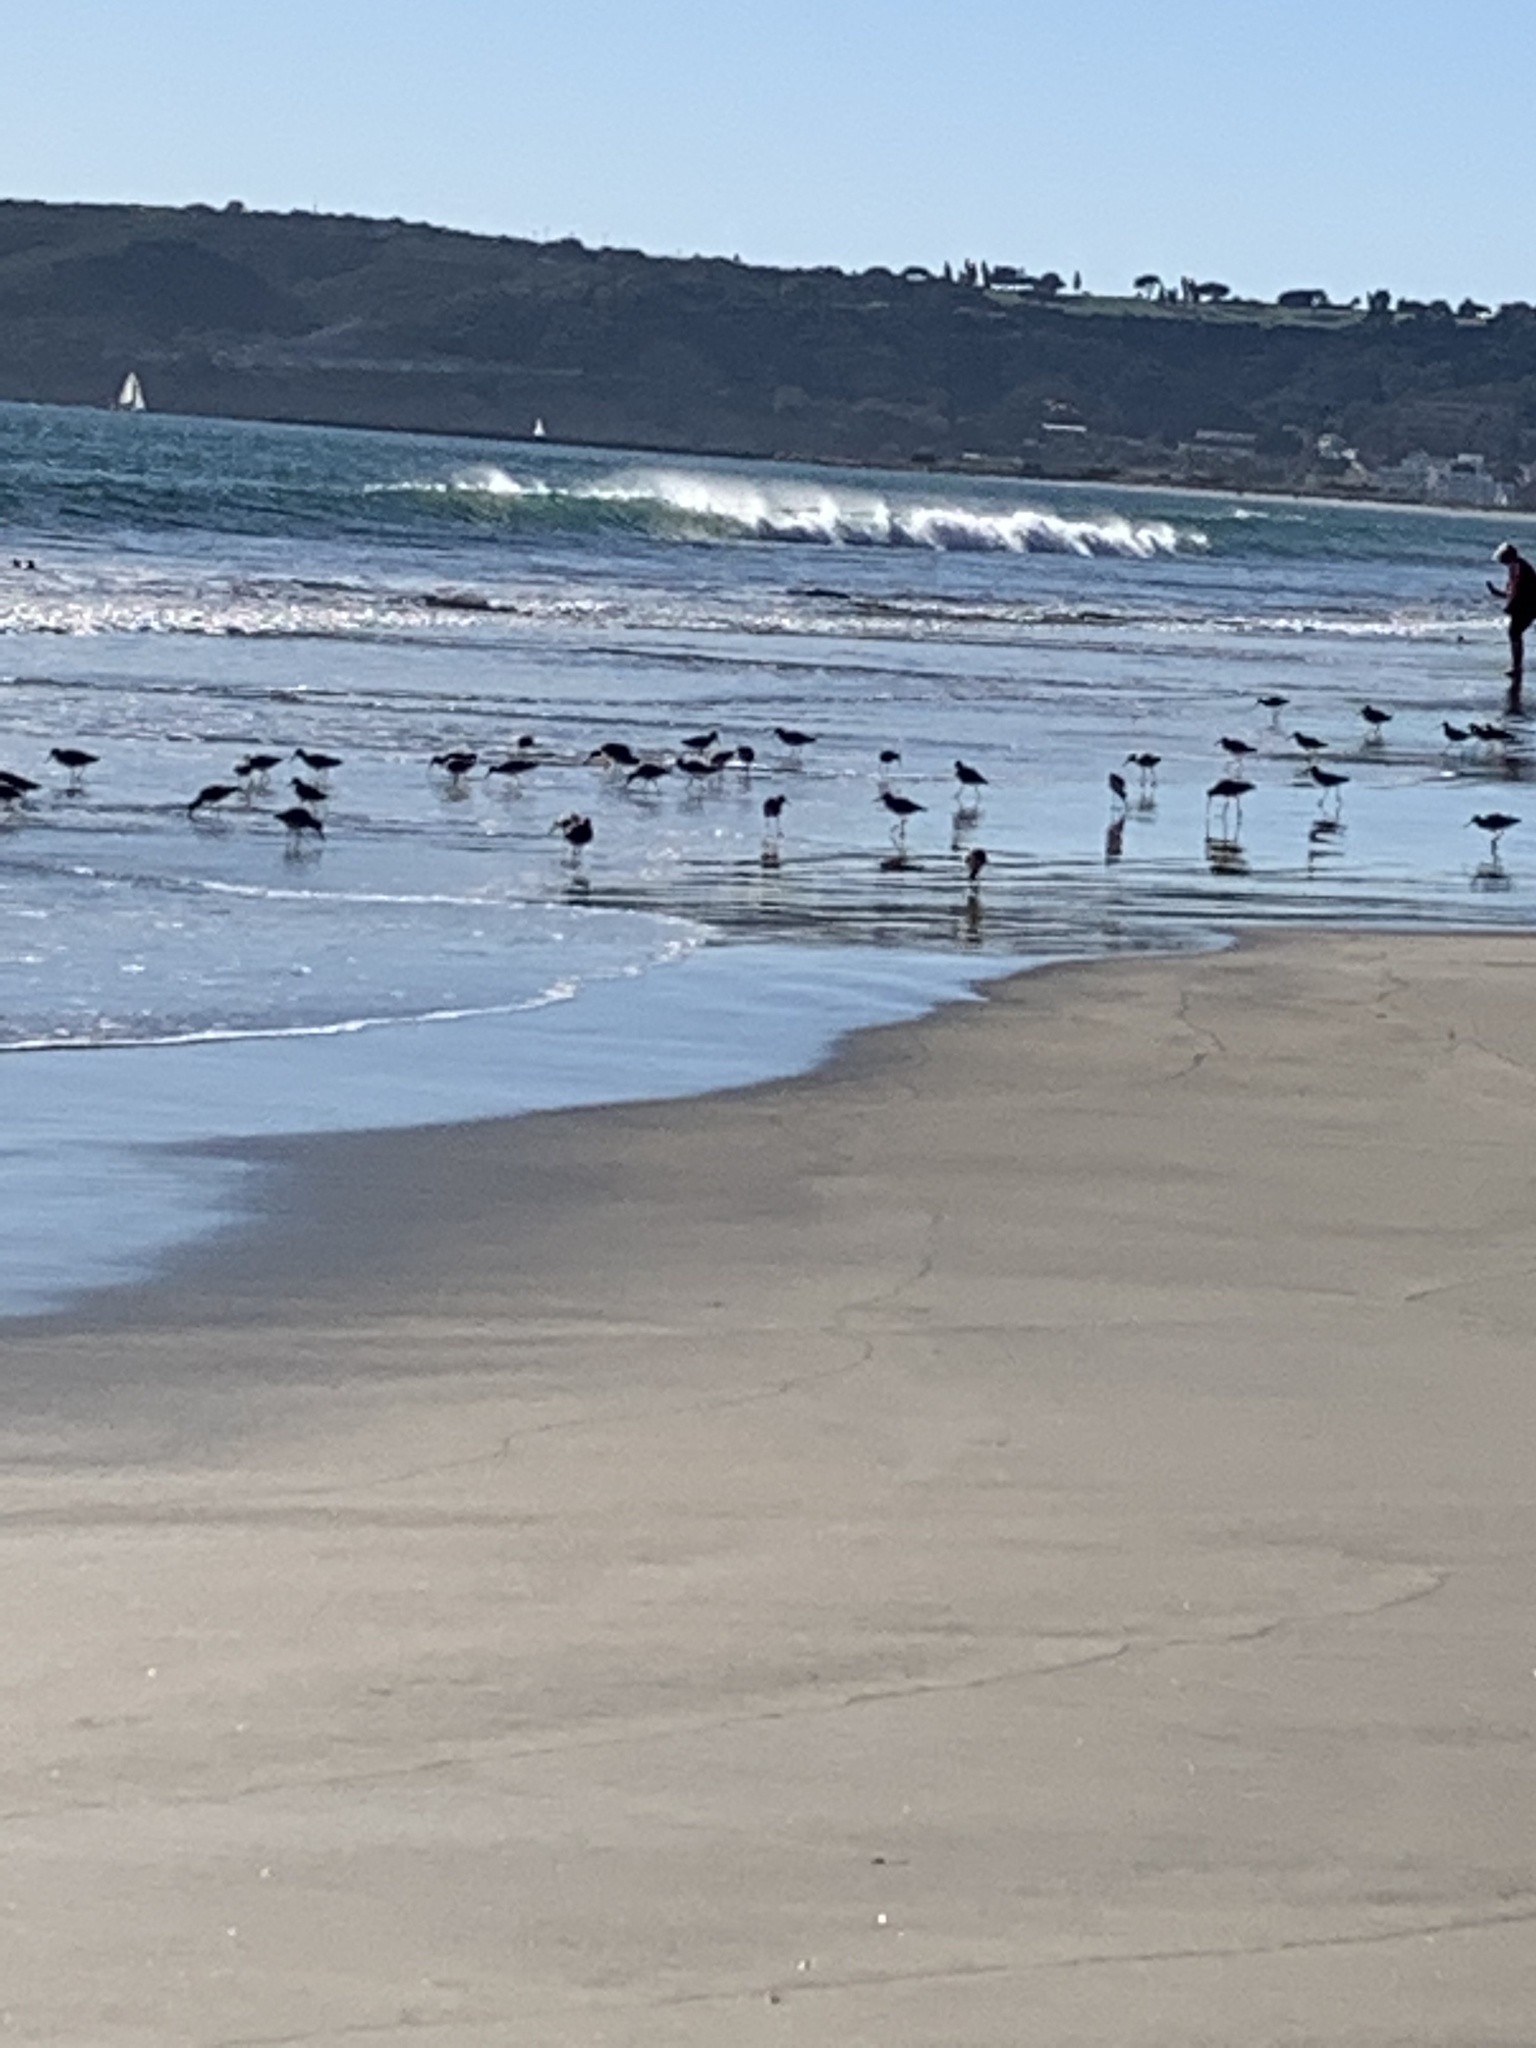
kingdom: Animalia
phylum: Chordata
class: Aves
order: Charadriiformes
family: Scolopacidae
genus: Calidris
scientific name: Calidris alba
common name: Sanderling
